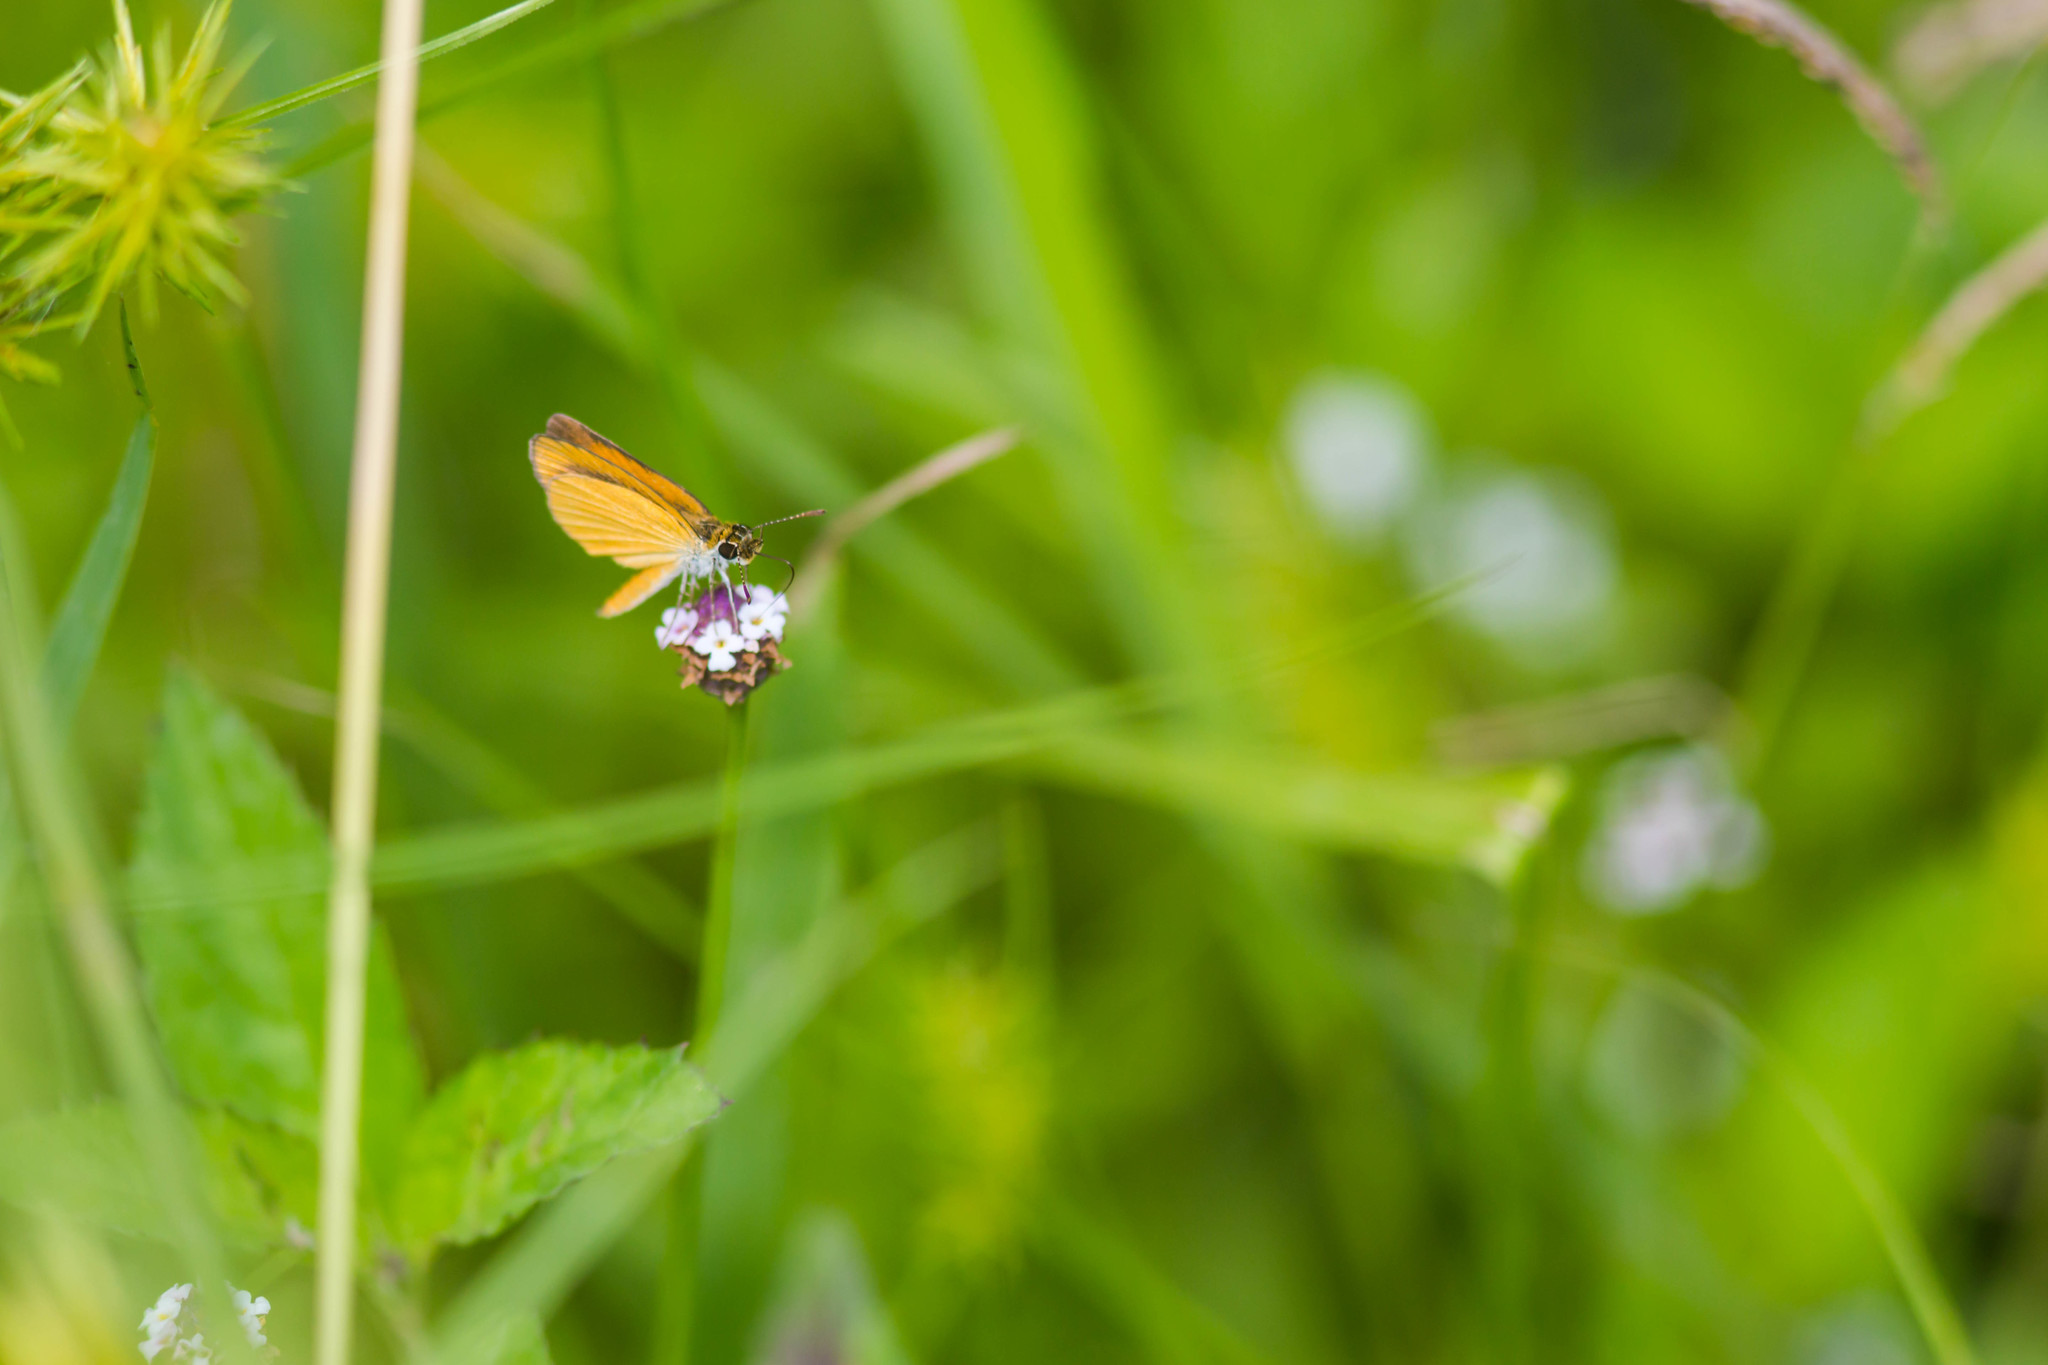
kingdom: Animalia
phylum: Arthropoda
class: Insecta
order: Lepidoptera
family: Hesperiidae
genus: Ancyloxypha
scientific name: Ancyloxypha numitor
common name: Least skipper
